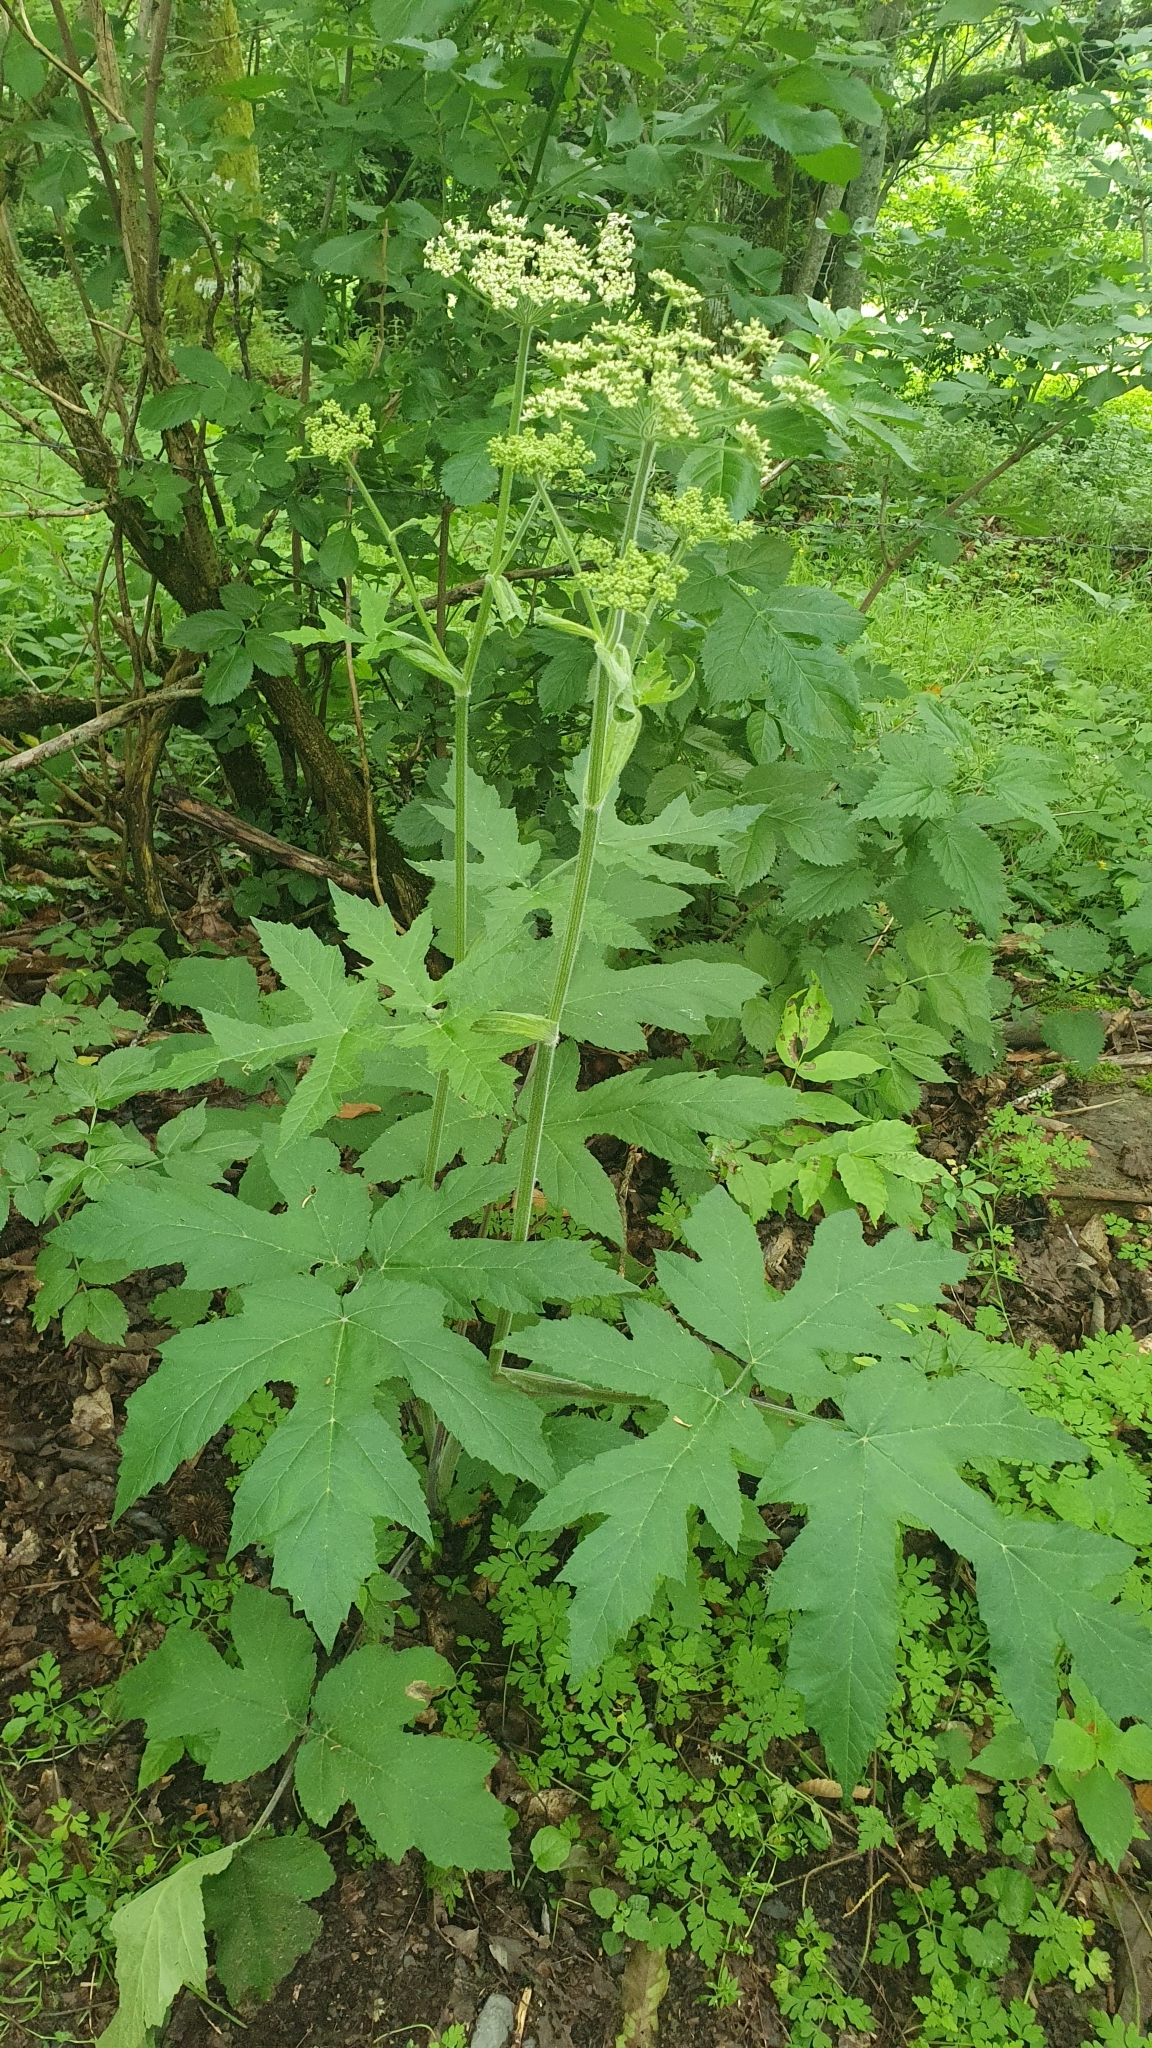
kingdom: Plantae
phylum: Tracheophyta
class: Magnoliopsida
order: Apiales
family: Apiaceae
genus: Heracleum
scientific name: Heracleum sphondylium
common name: Hogweed
